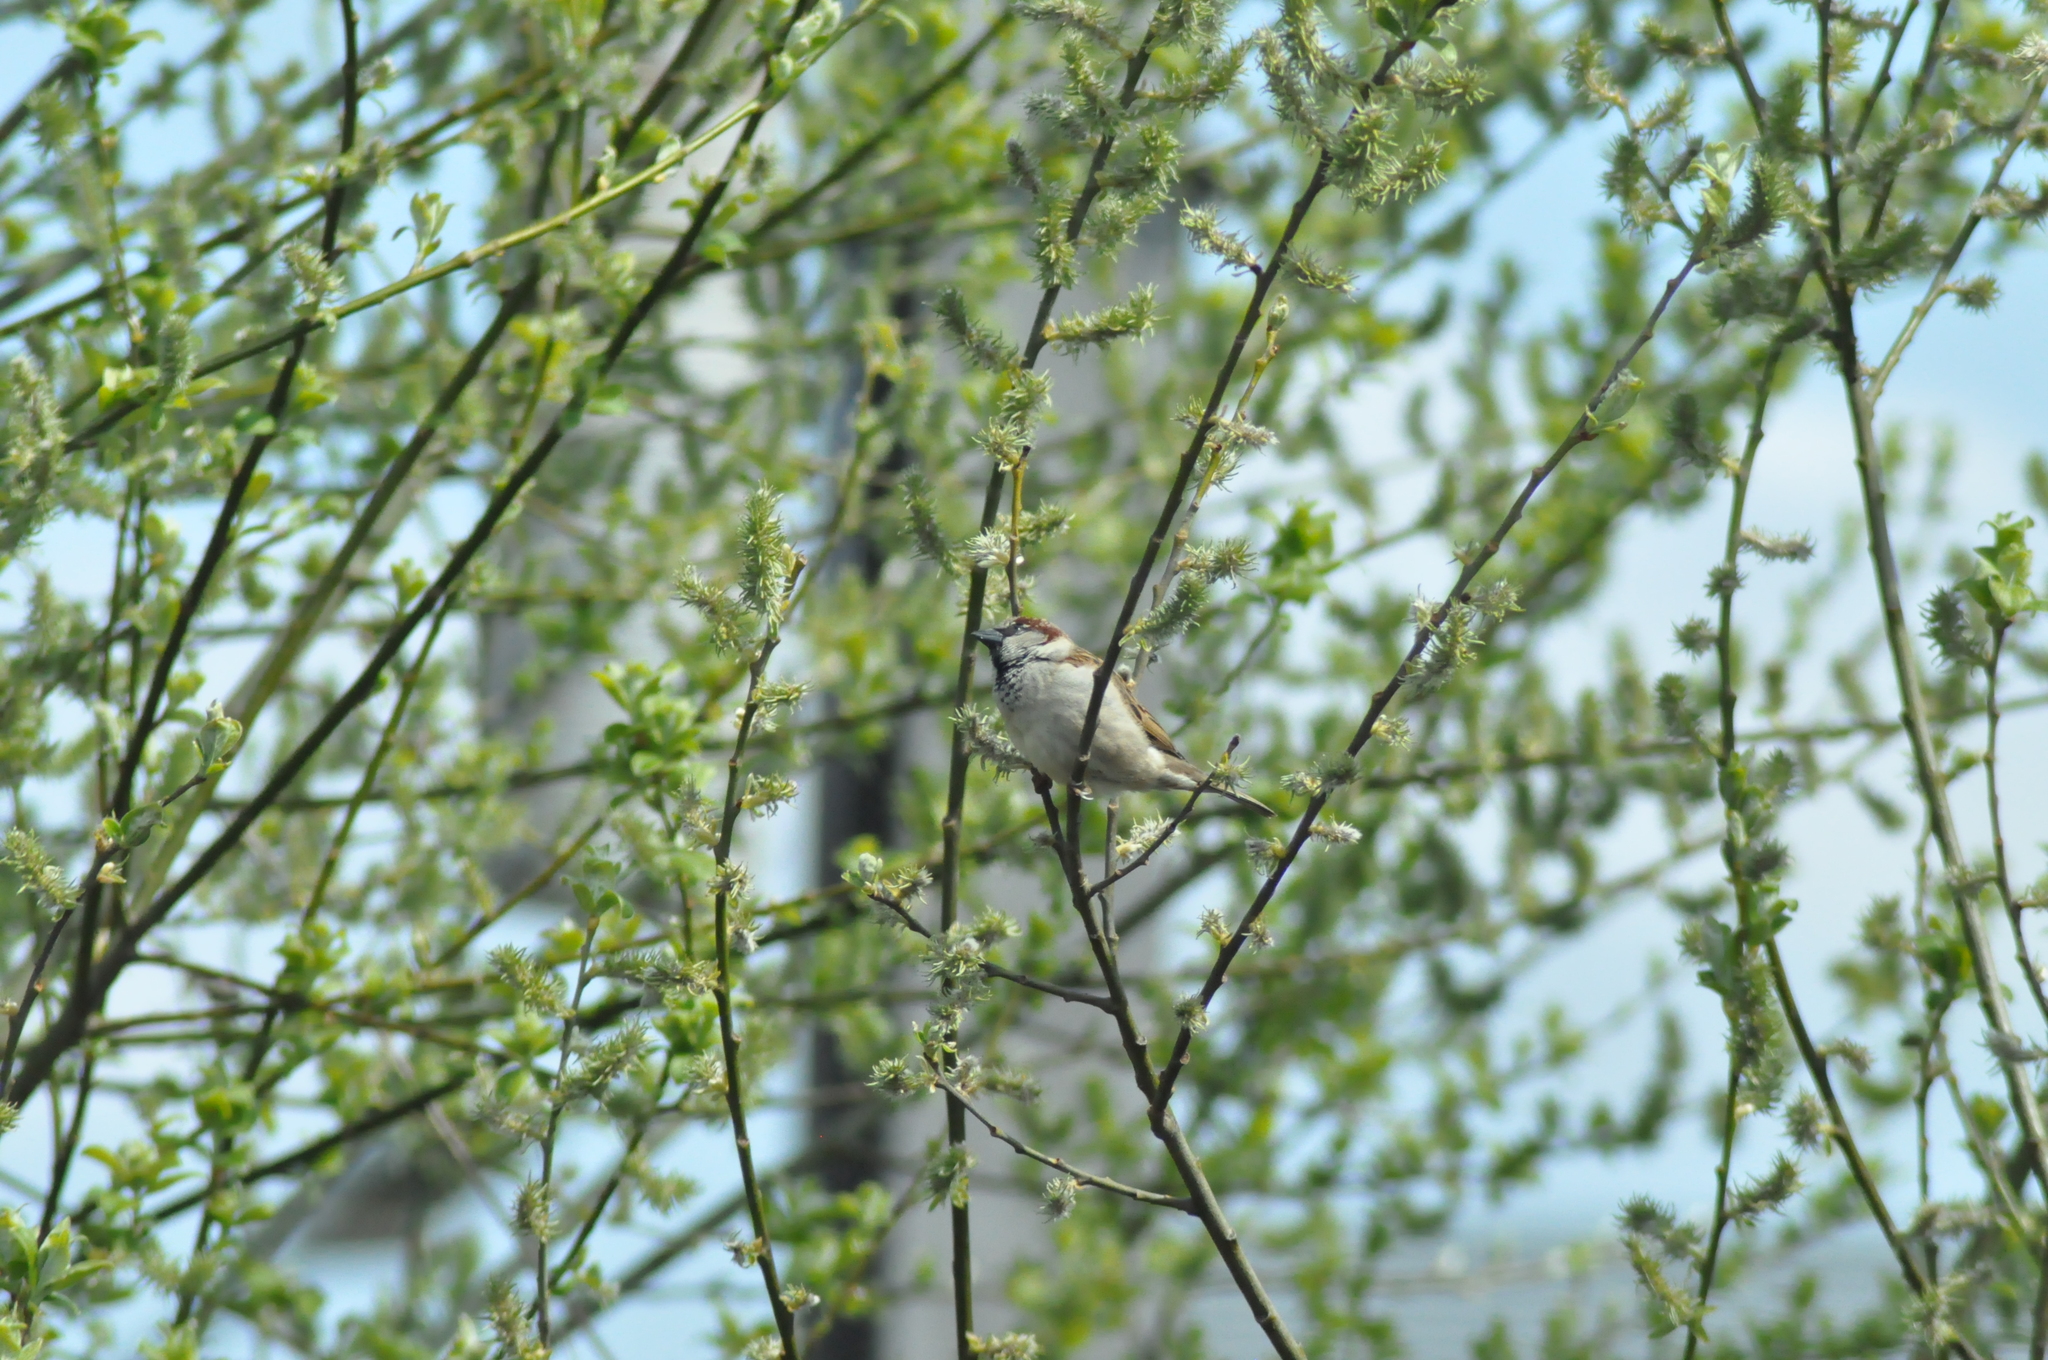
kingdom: Animalia
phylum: Chordata
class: Aves
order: Passeriformes
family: Passeridae
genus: Passer
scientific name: Passer domesticus
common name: House sparrow
